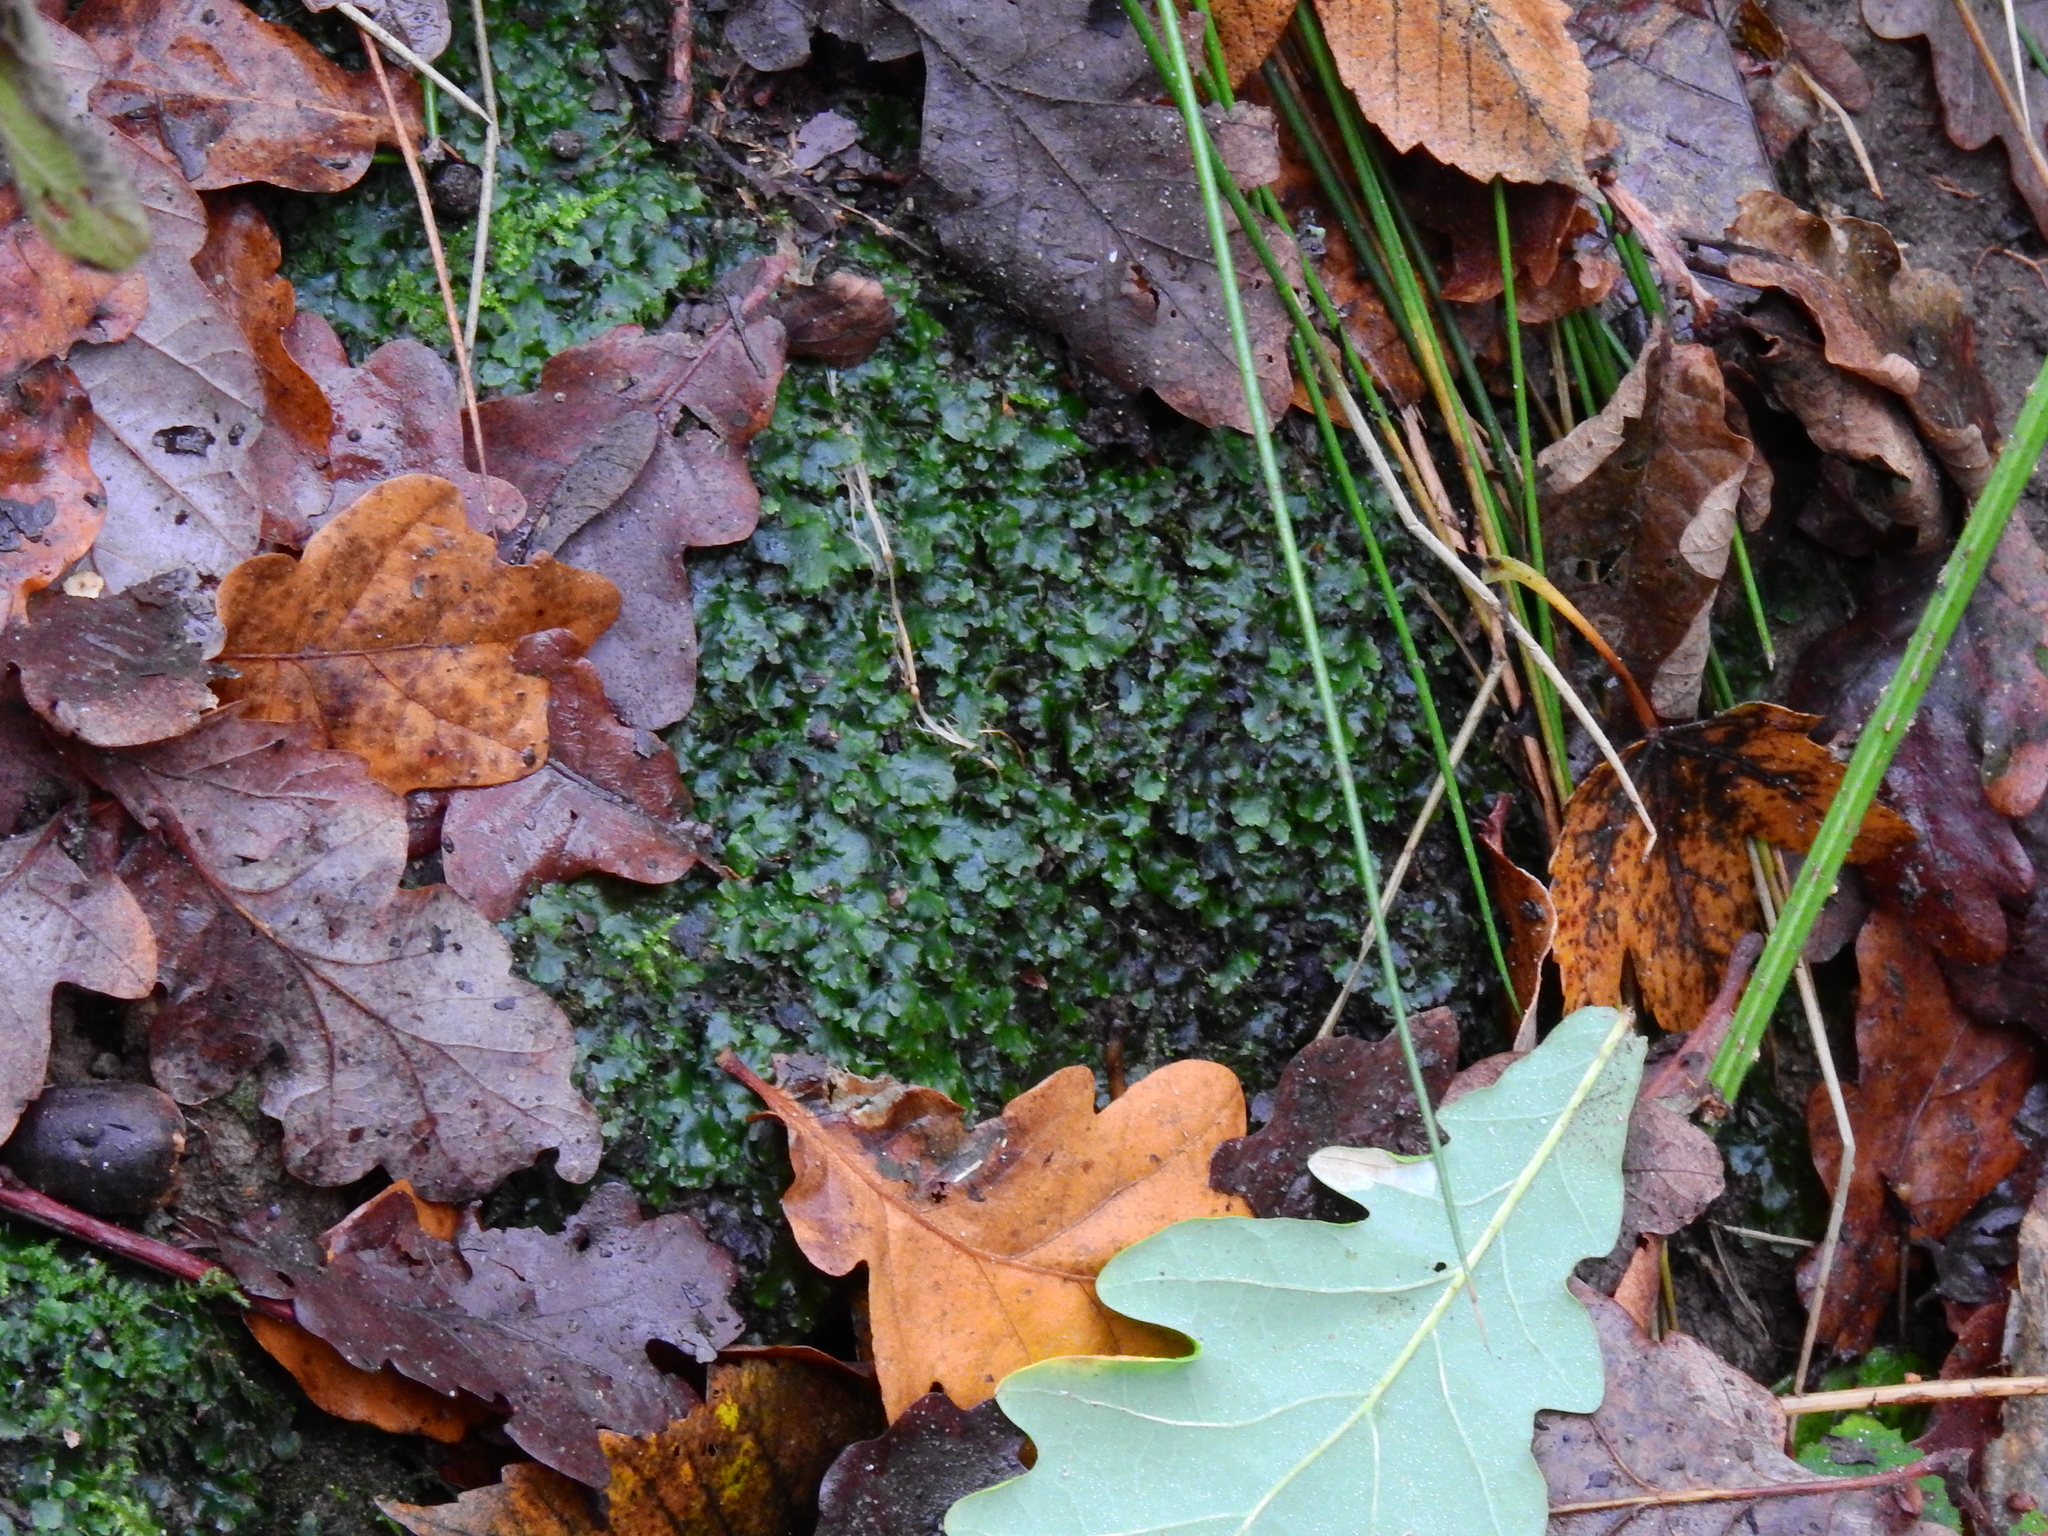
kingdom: Plantae
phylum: Marchantiophyta
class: Jungermanniopsida
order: Pelliales
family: Pelliaceae
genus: Pellia
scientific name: Pellia epiphylla
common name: Common pellia
